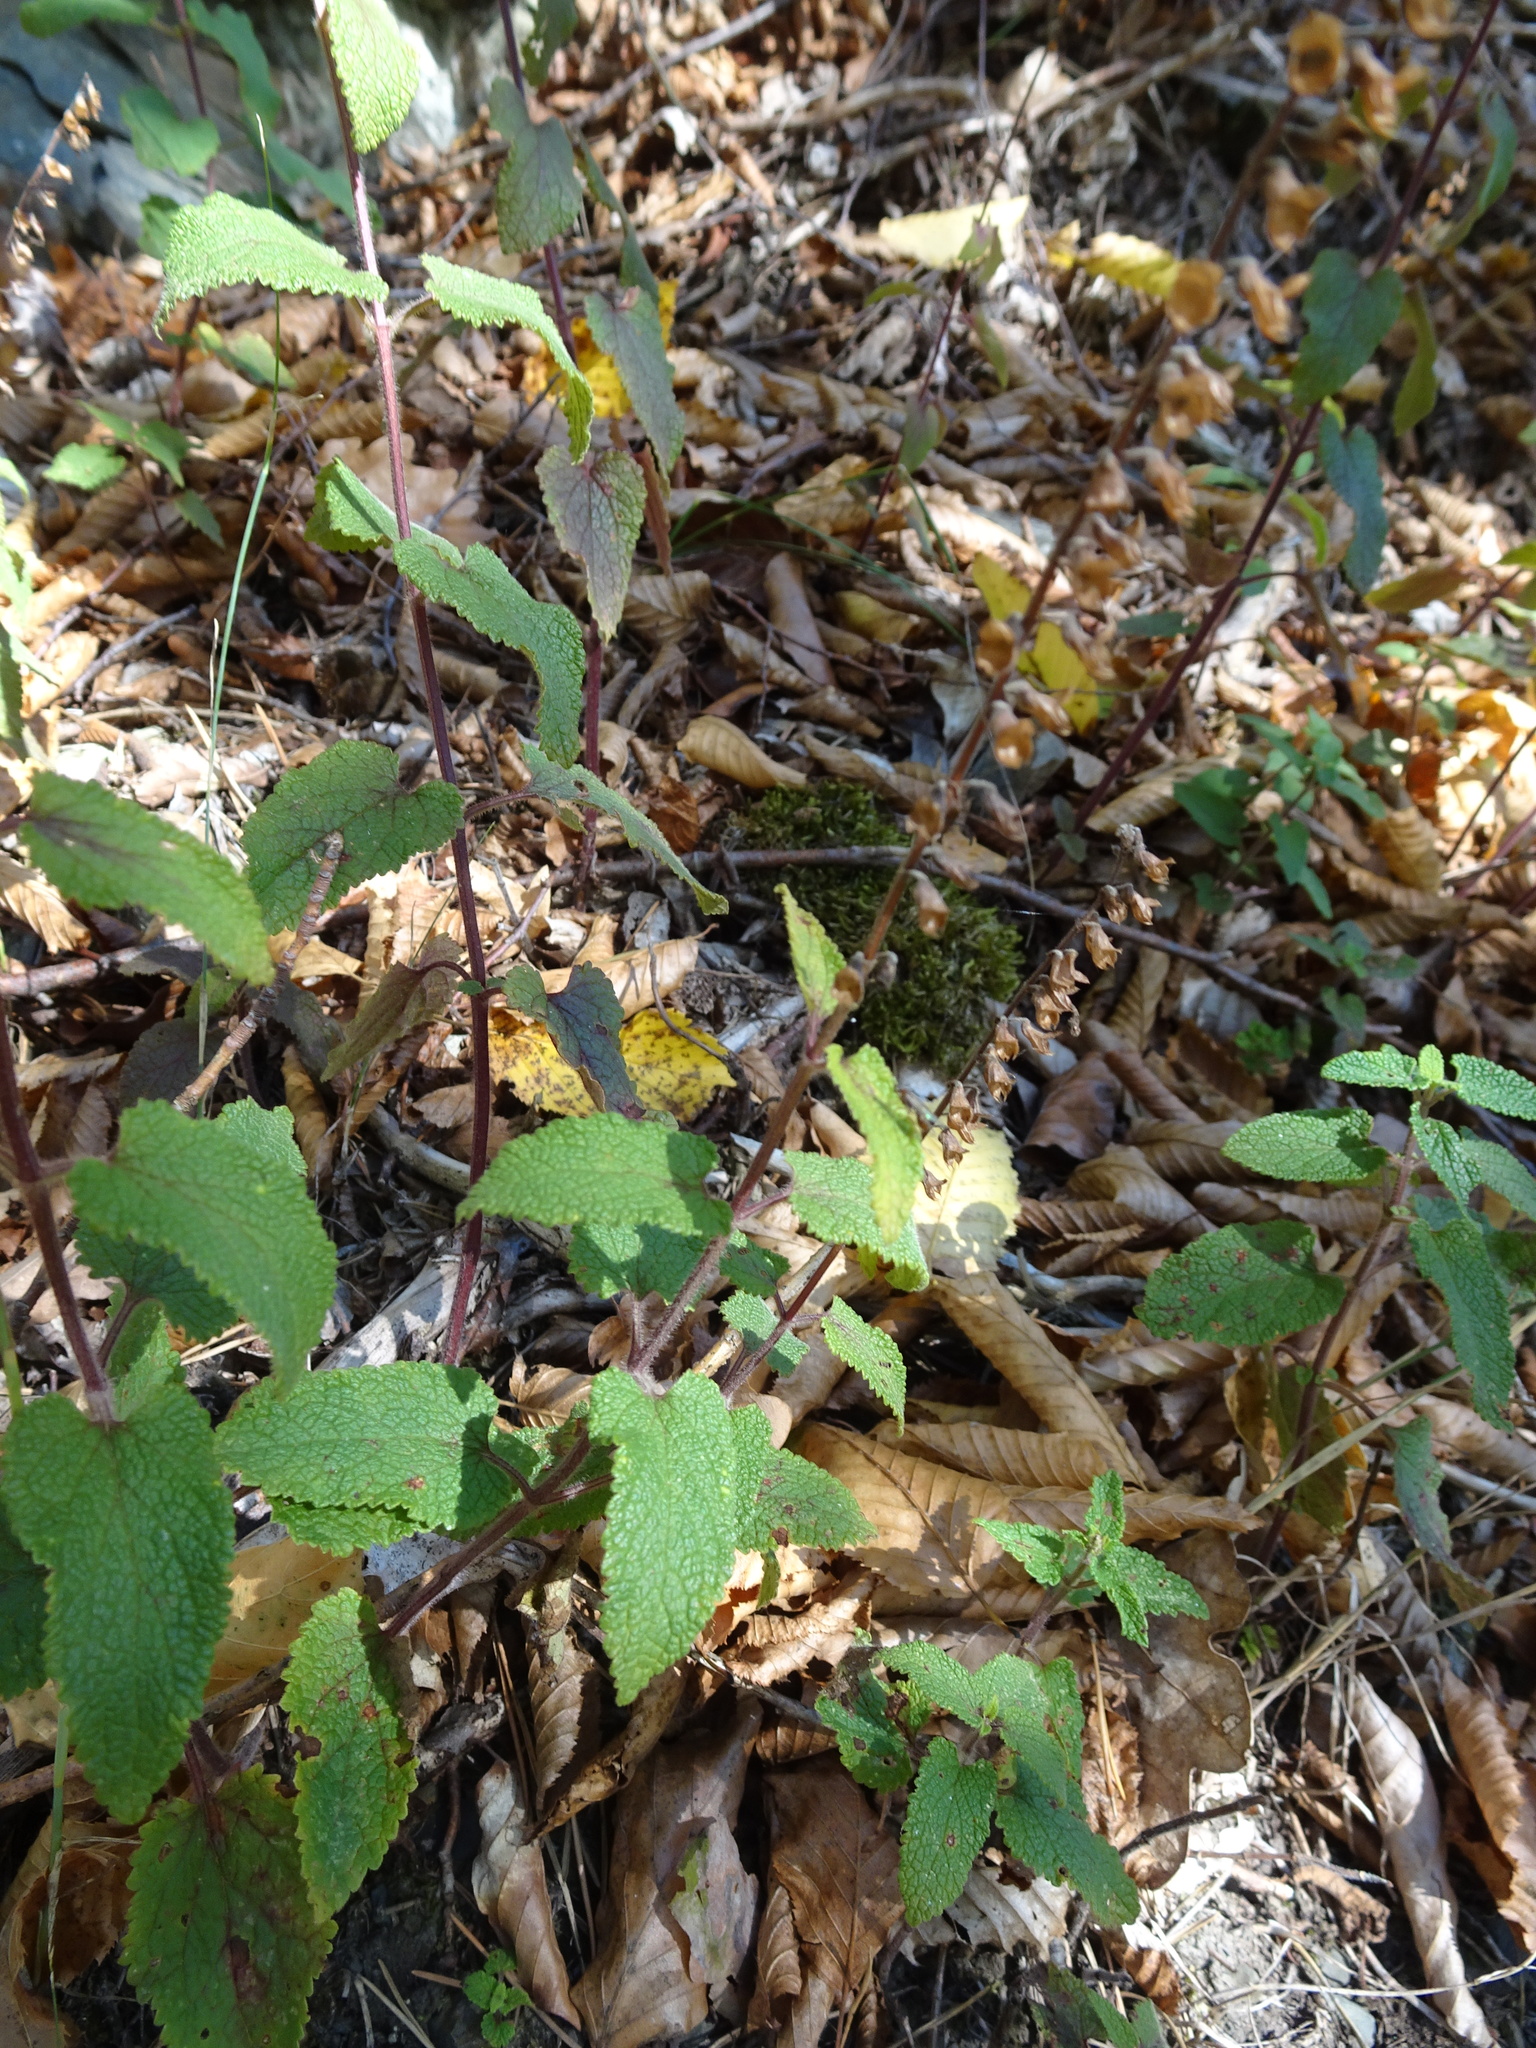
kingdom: Plantae
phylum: Tracheophyta
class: Magnoliopsida
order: Lamiales
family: Lamiaceae
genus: Teucrium
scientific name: Teucrium scorodonia
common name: Woodland germander
